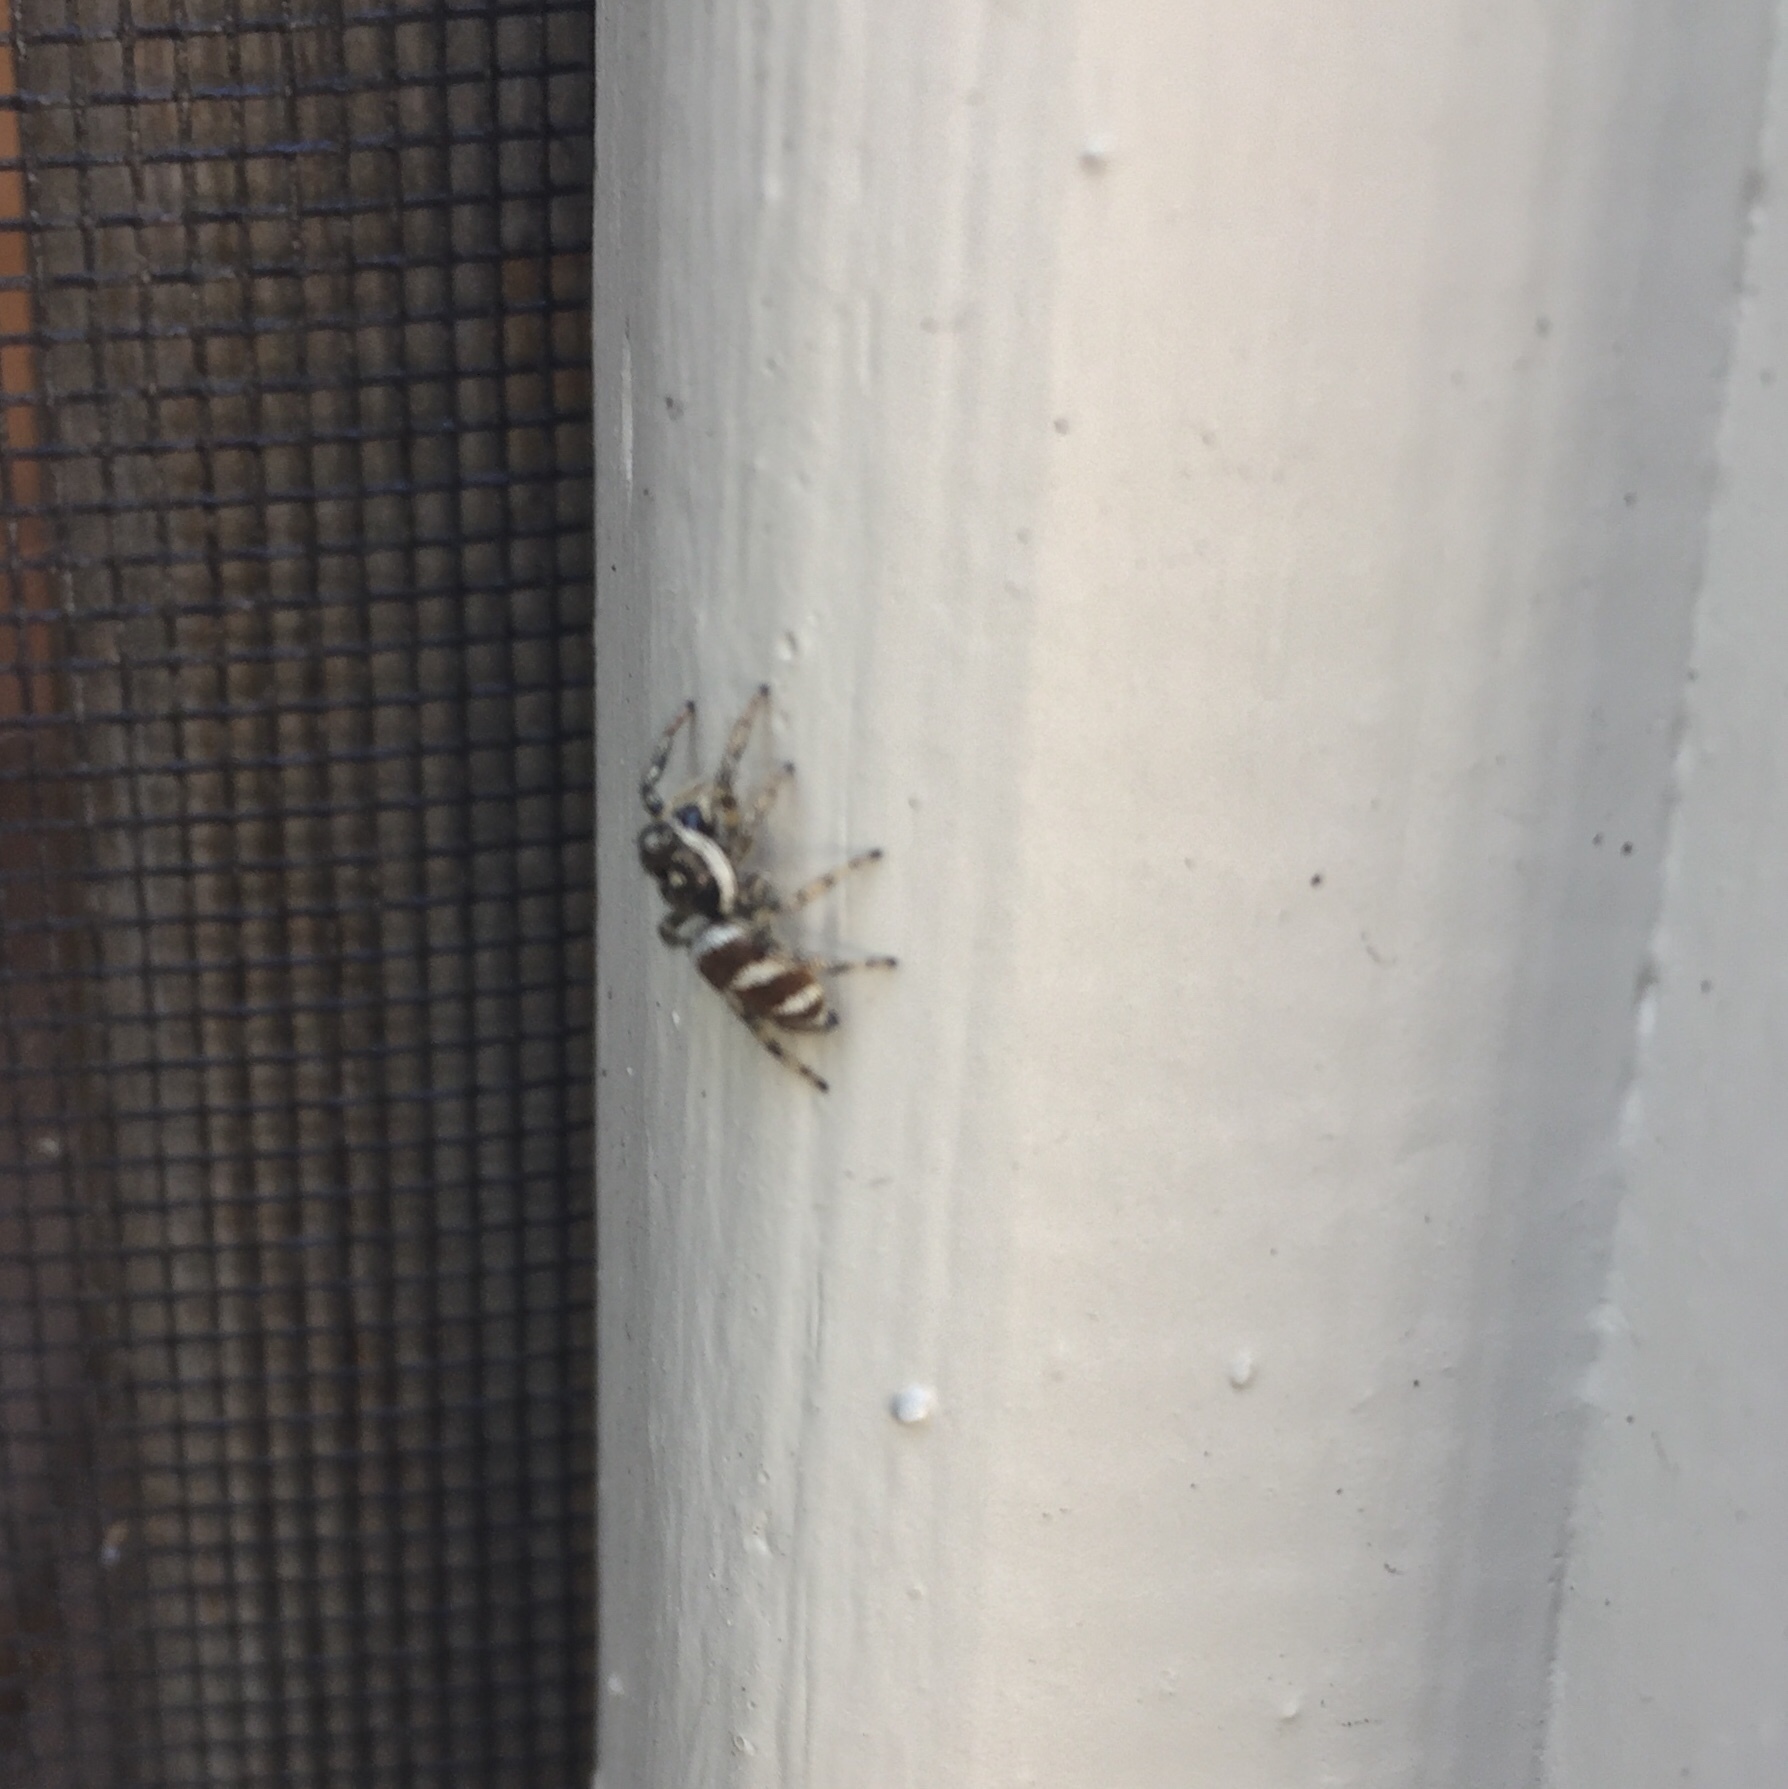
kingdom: Animalia
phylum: Arthropoda
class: Arachnida
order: Araneae
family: Salticidae
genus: Salticus
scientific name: Salticus scenicus
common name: Zebra jumper
